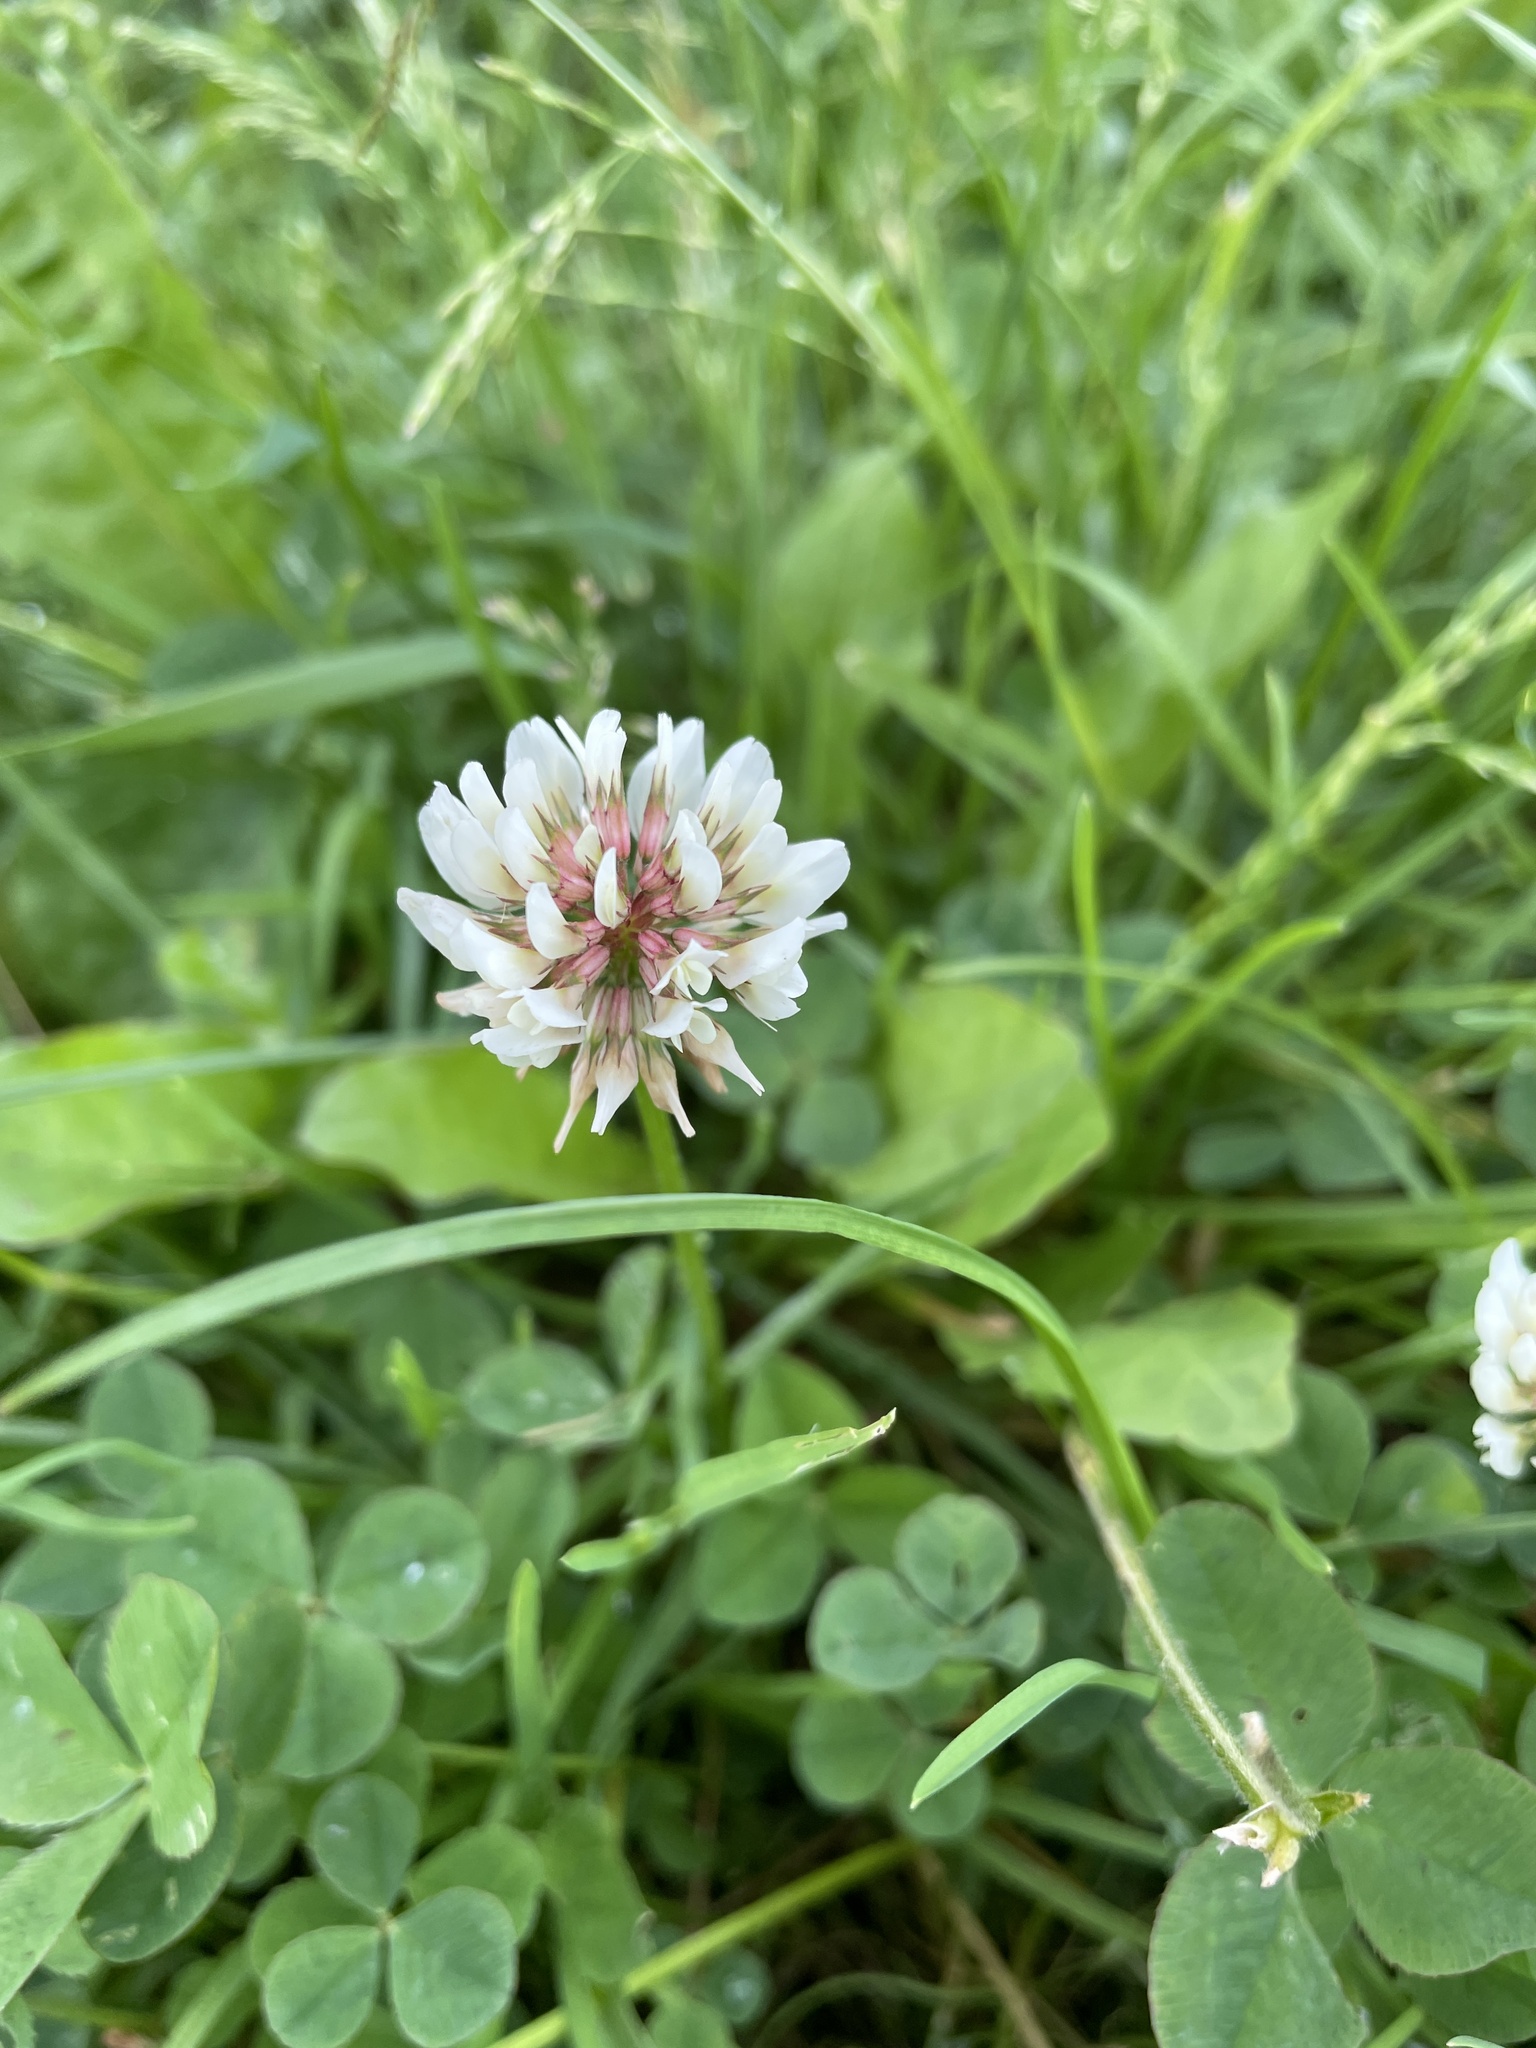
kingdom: Plantae
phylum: Tracheophyta
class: Magnoliopsida
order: Fabales
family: Fabaceae
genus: Trifolium
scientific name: Trifolium repens
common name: White clover
